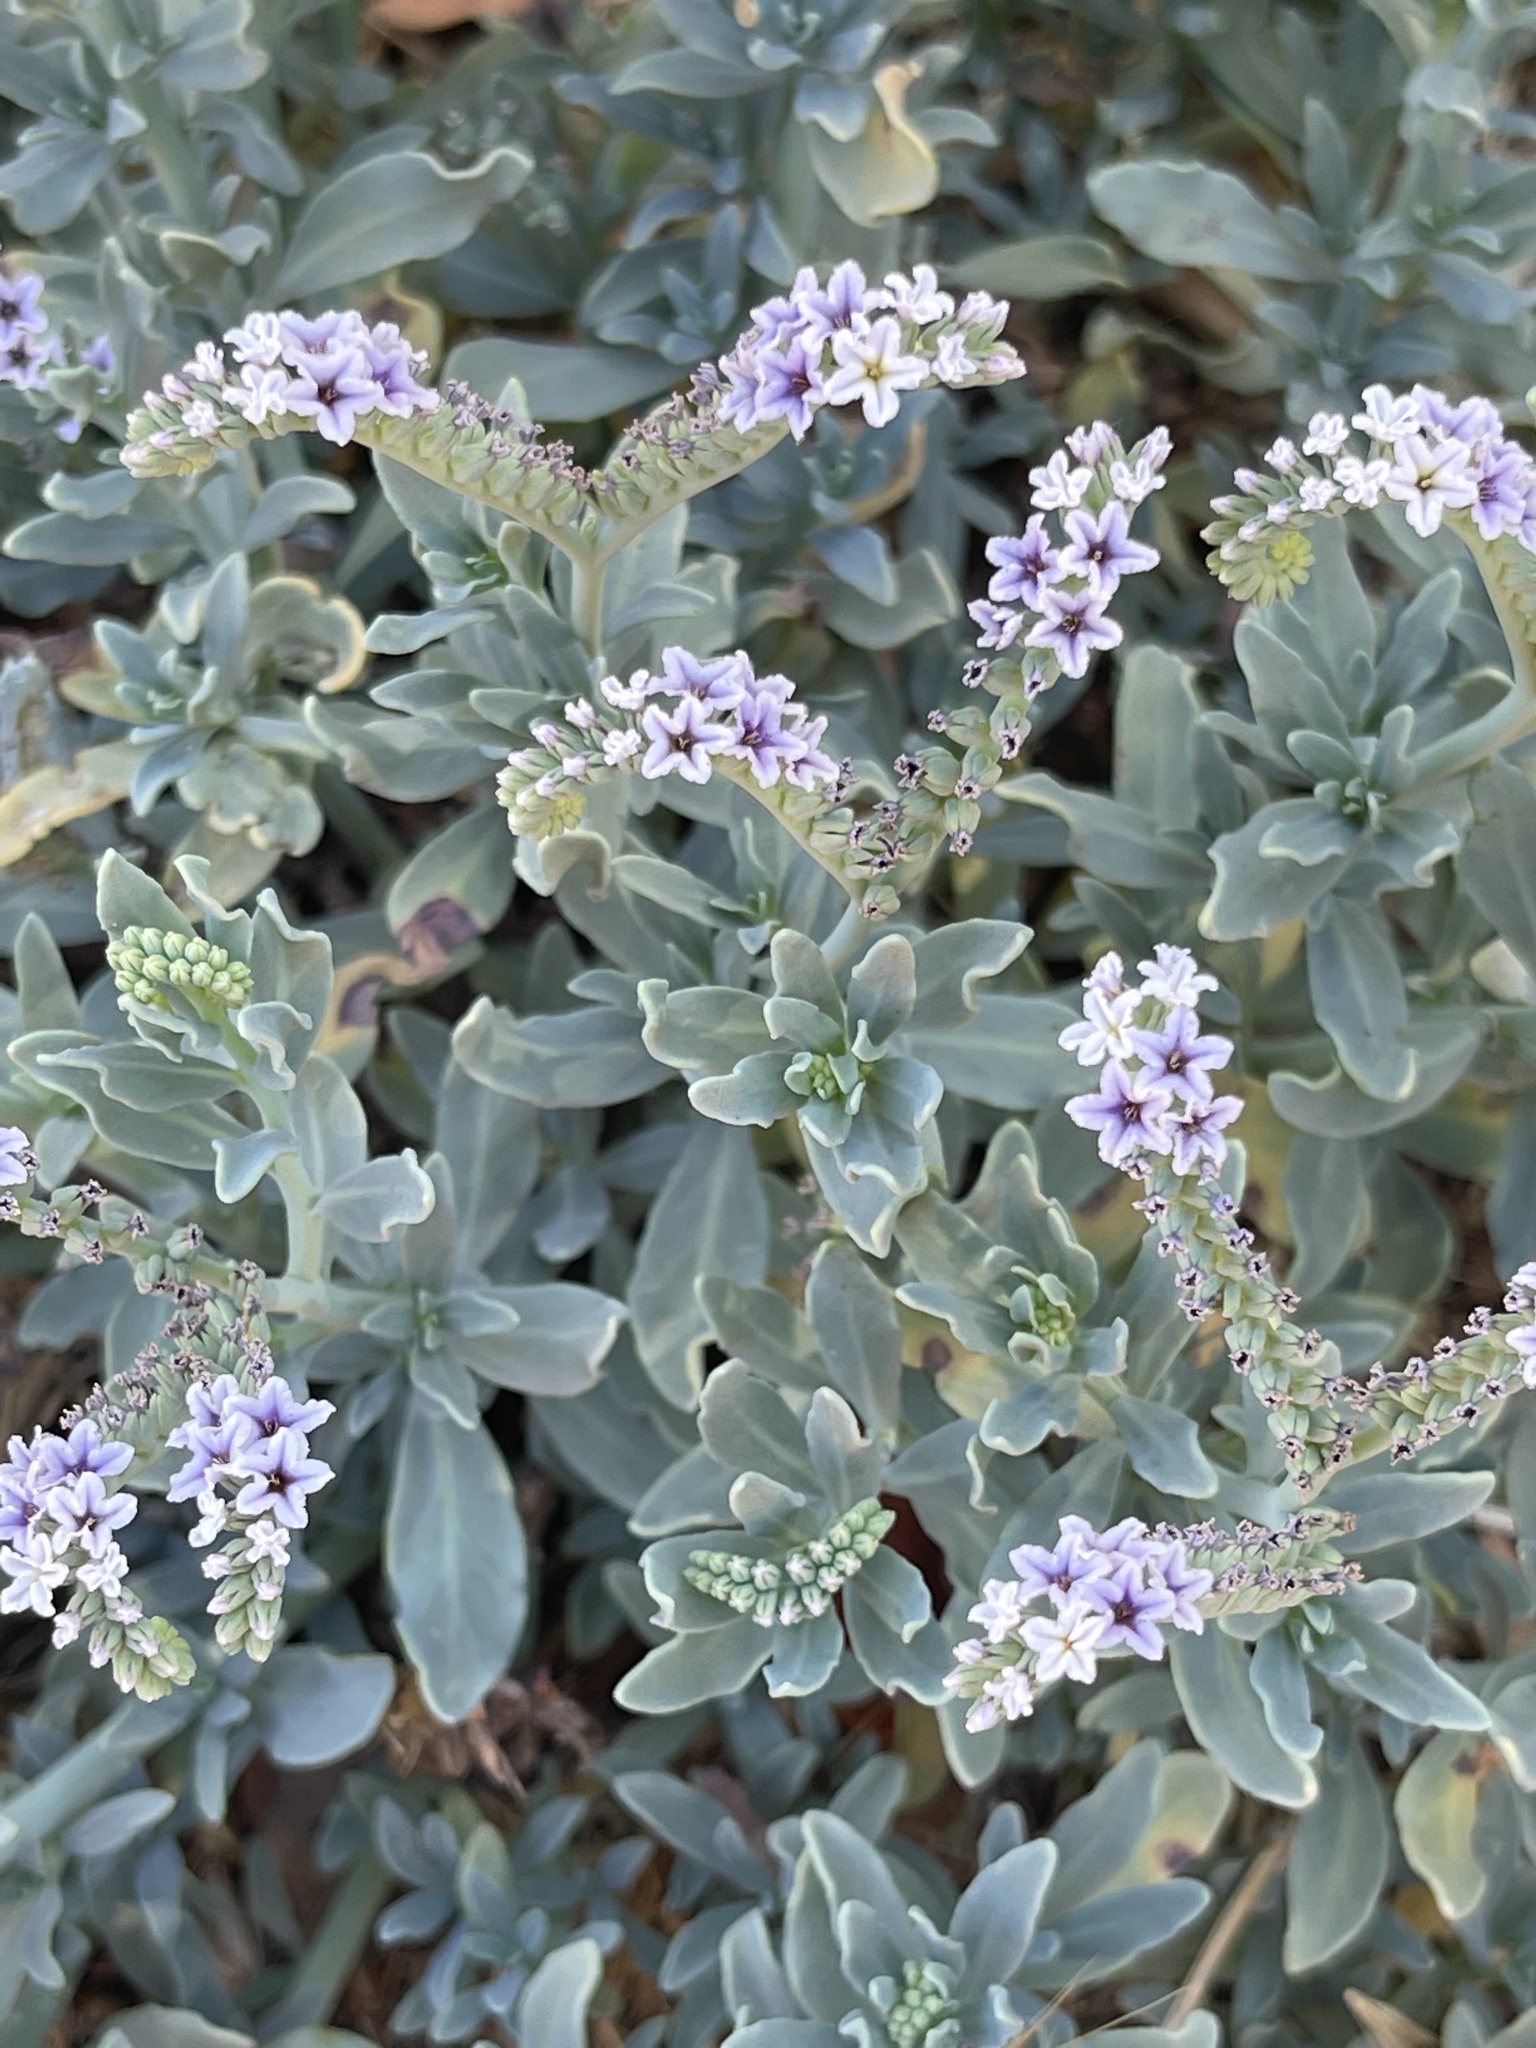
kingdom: Plantae
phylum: Tracheophyta
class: Magnoliopsida
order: Boraginales
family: Heliotropiaceae
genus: Heliotropium
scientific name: Heliotropium curassavicum
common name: Seaside heliotrope
